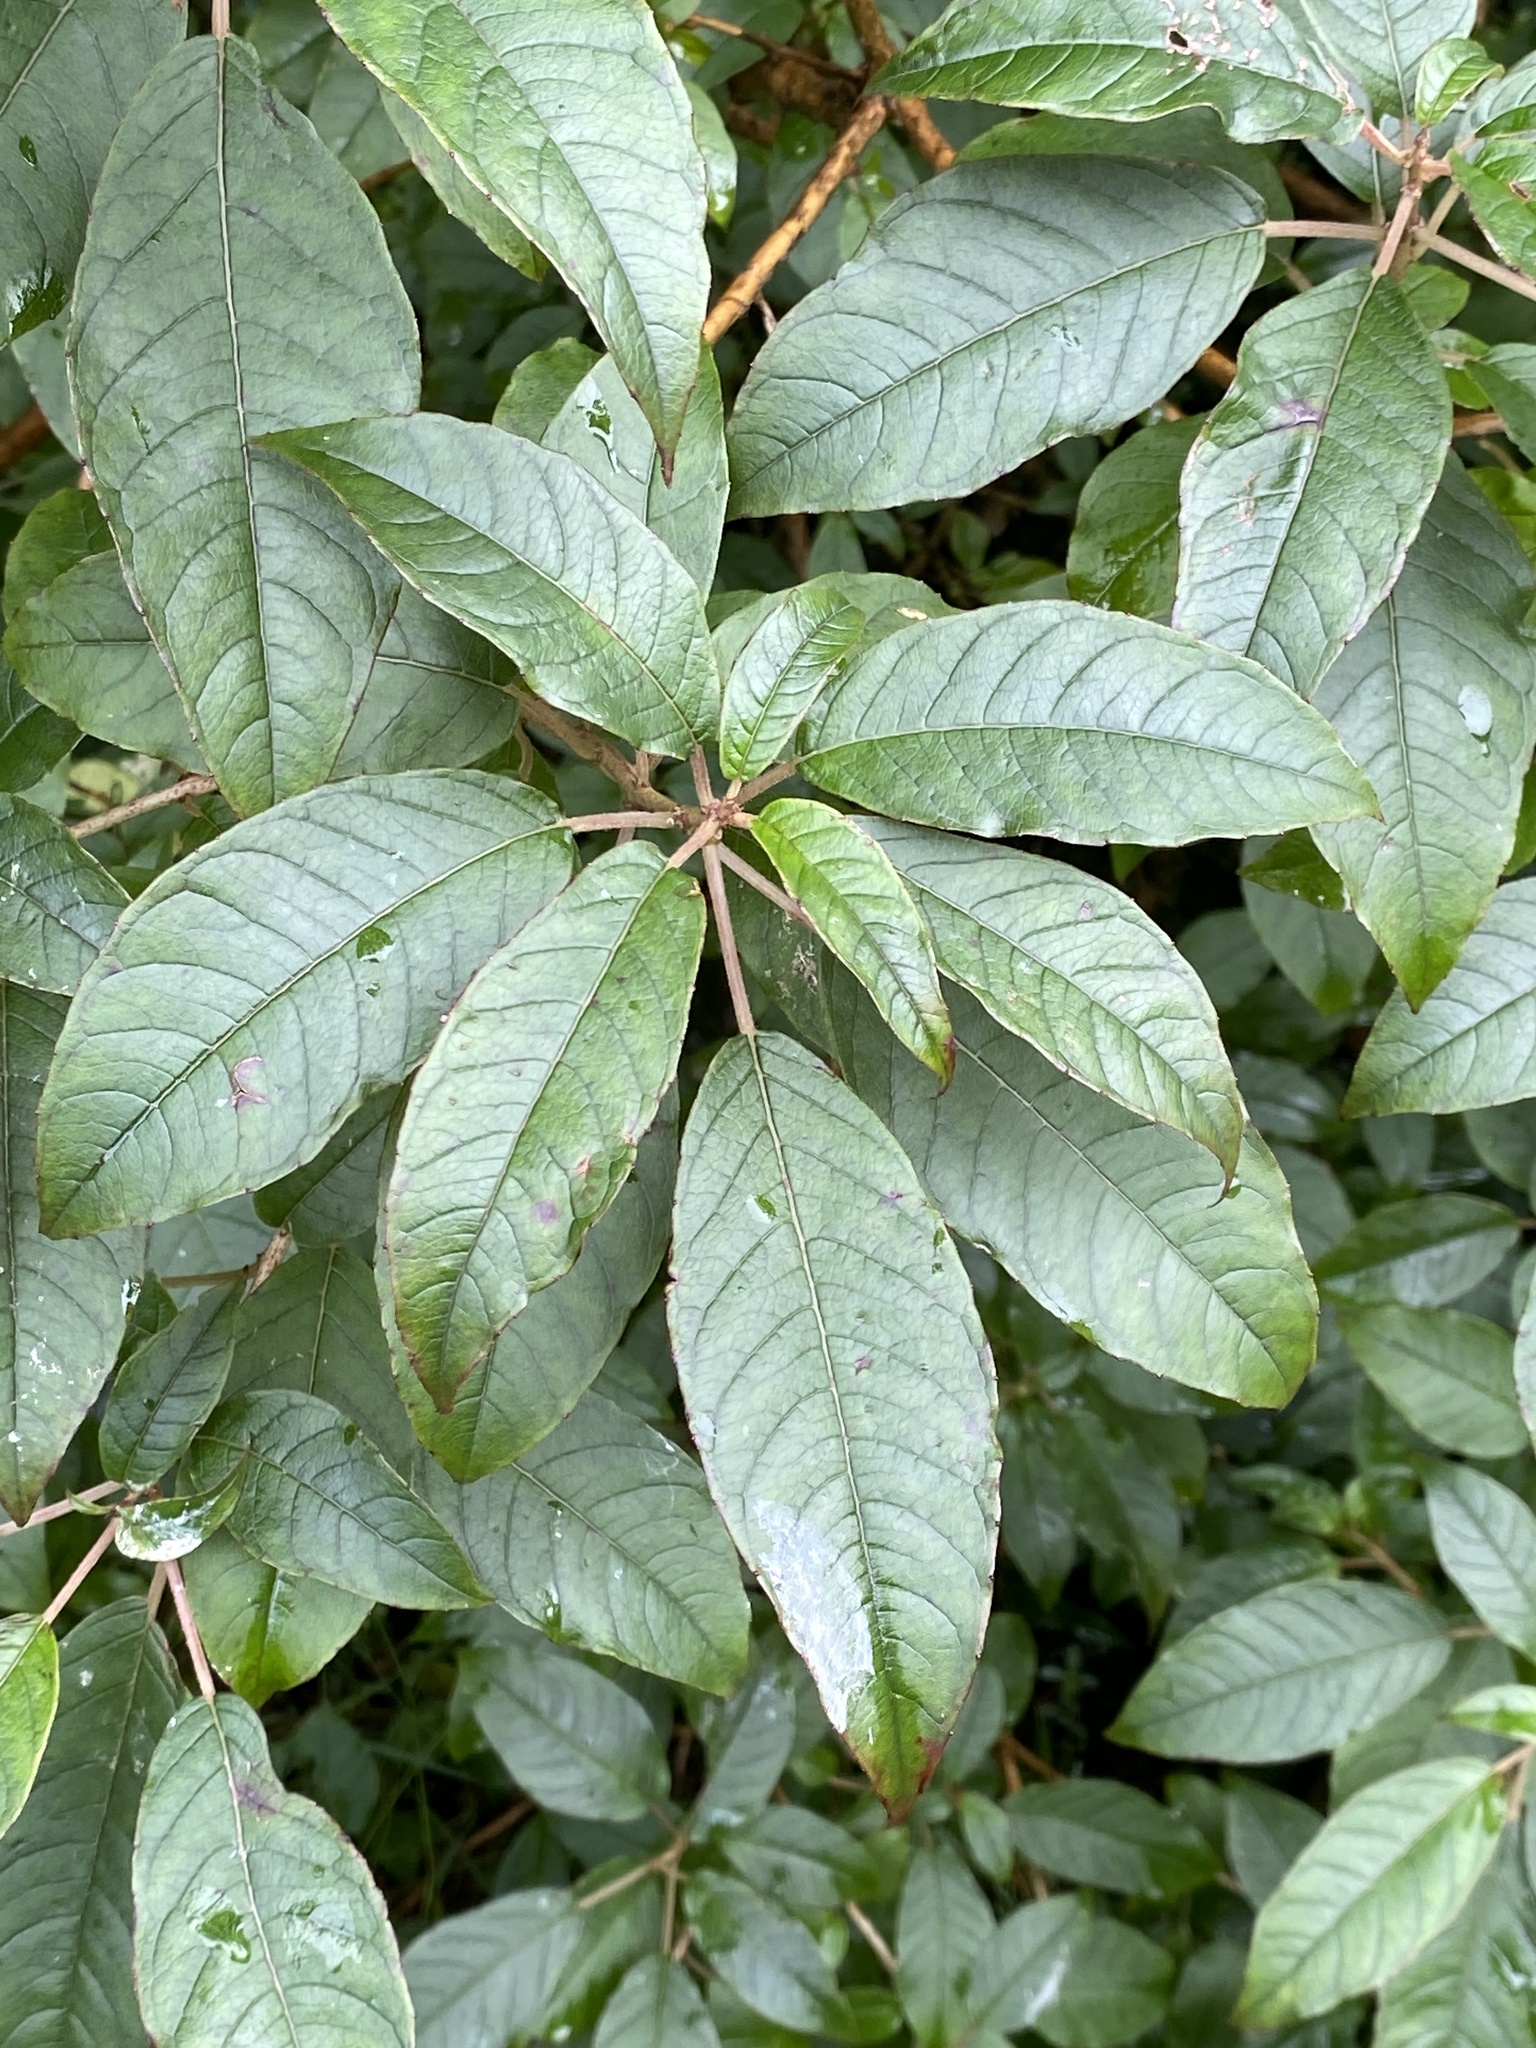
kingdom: Plantae
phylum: Tracheophyta
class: Magnoliopsida
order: Myrtales
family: Onagraceae
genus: Fuchsia
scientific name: Fuchsia excorticata
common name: Tree fuchsia
